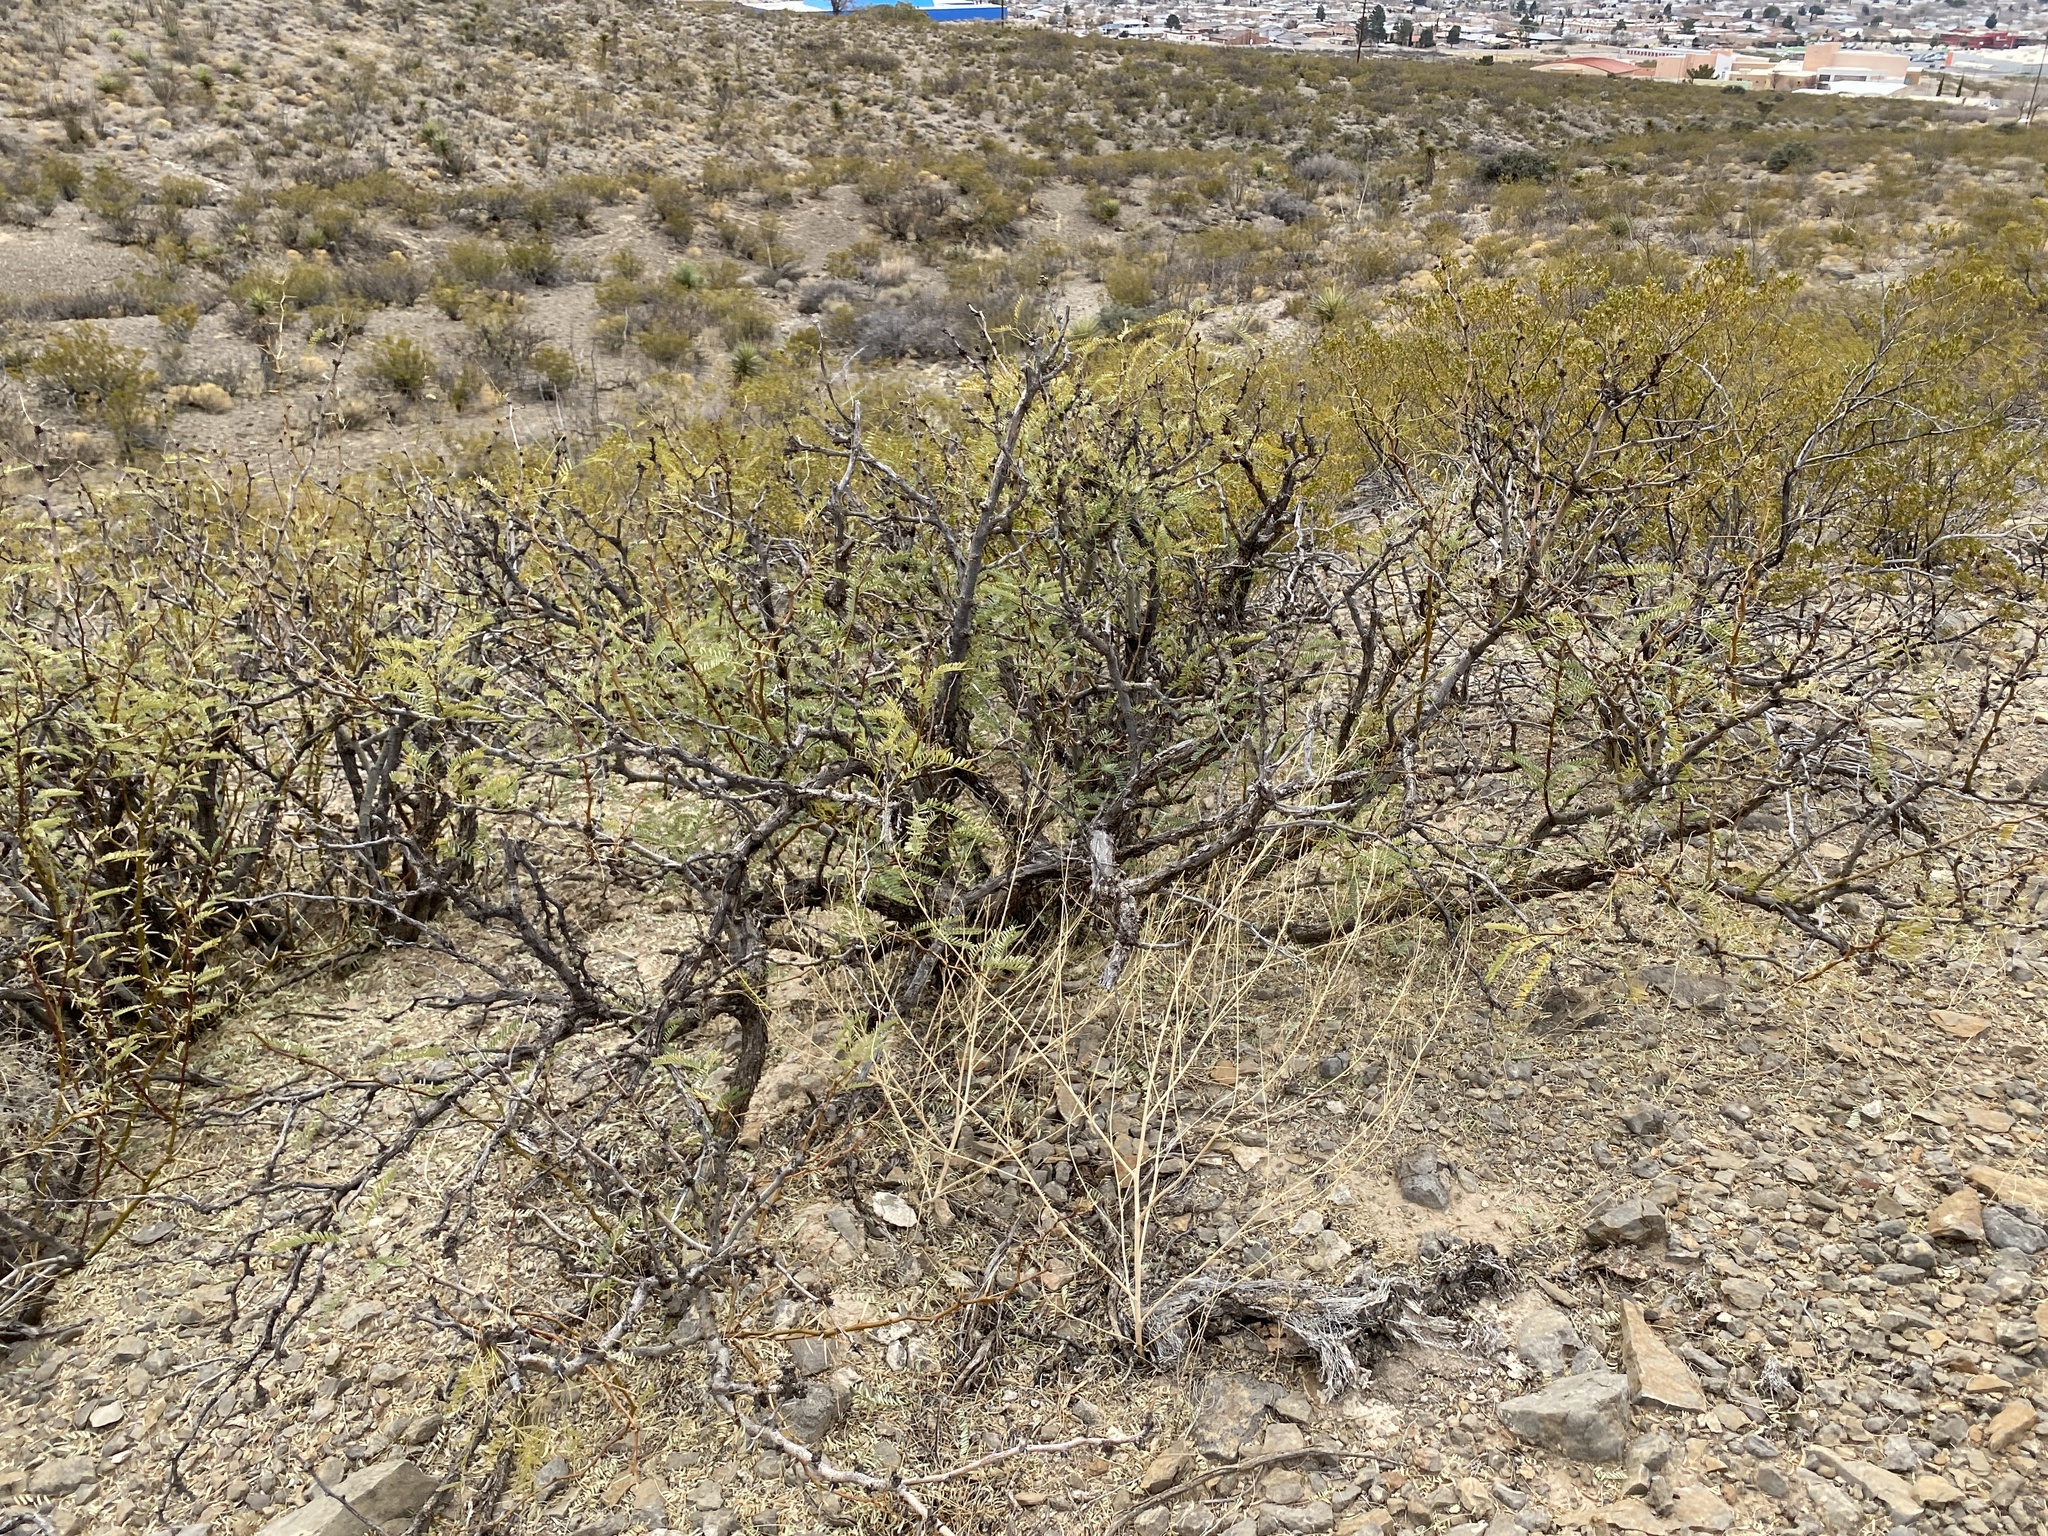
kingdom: Plantae
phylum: Tracheophyta
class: Magnoliopsida
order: Fabales
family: Fabaceae
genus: Prosopis
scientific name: Prosopis glandulosa
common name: Honey mesquite
